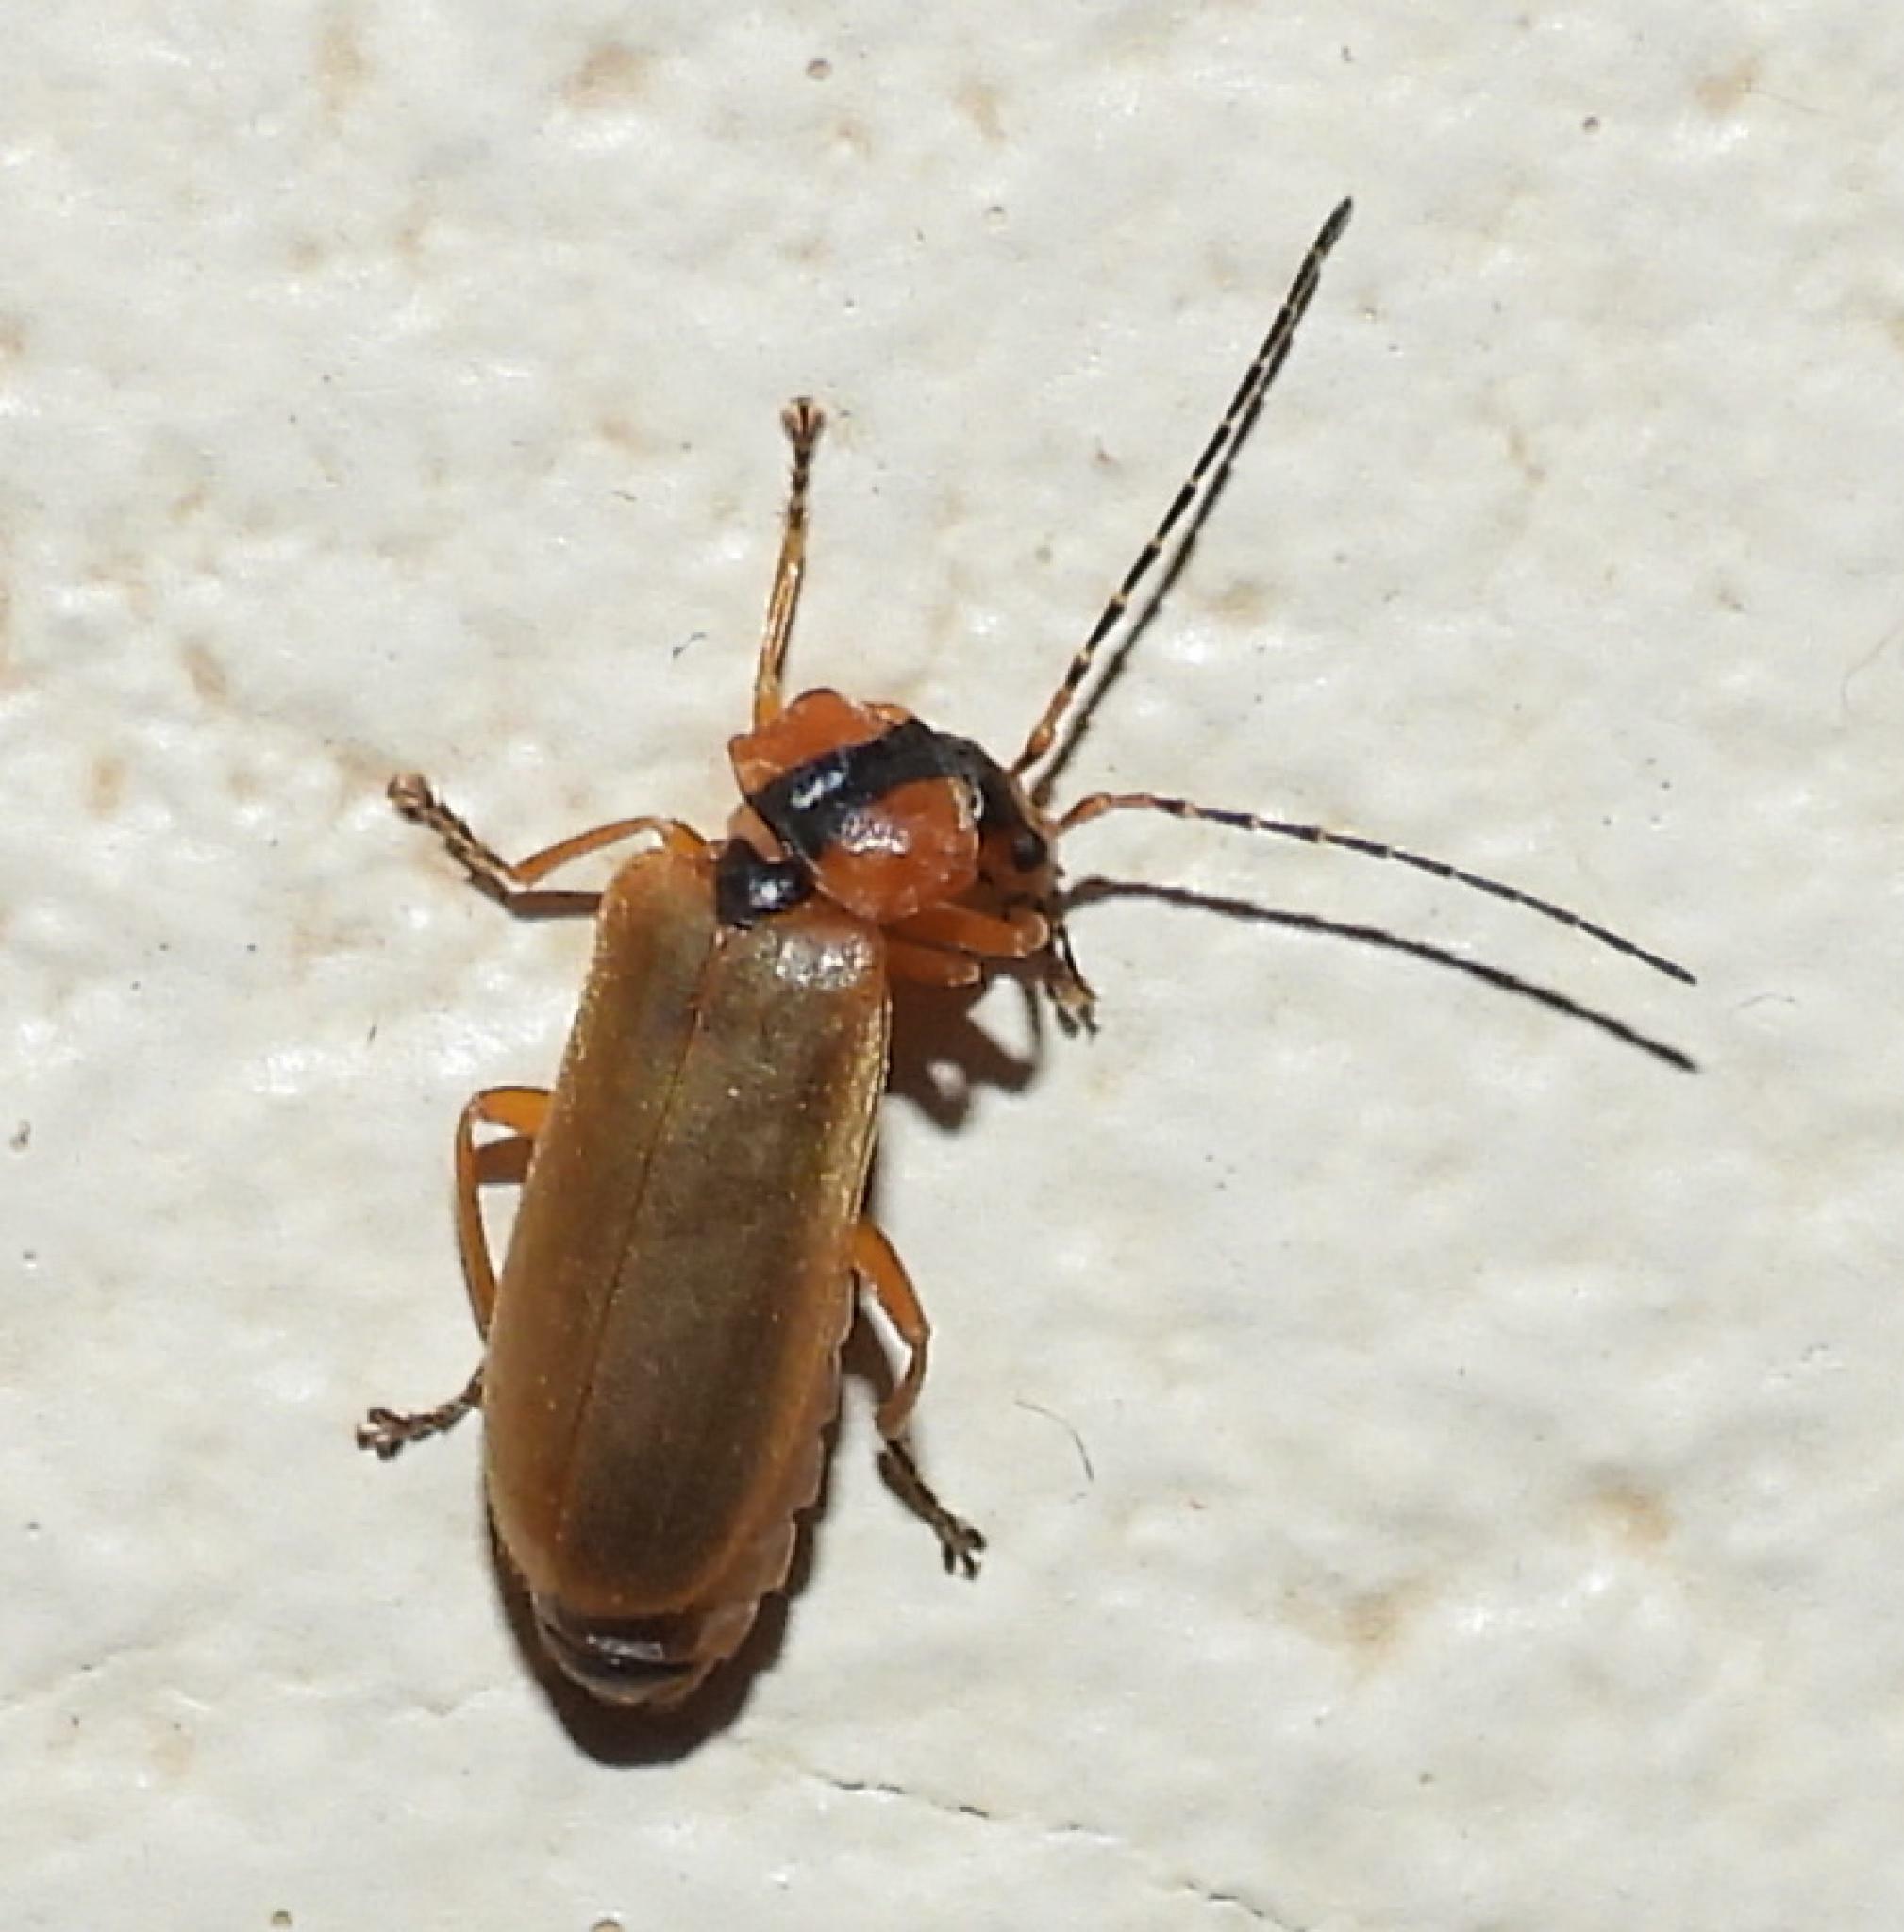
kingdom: Animalia
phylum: Arthropoda
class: Insecta
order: Coleoptera
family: Cantharidae
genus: Afronycha
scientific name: Afronycha
